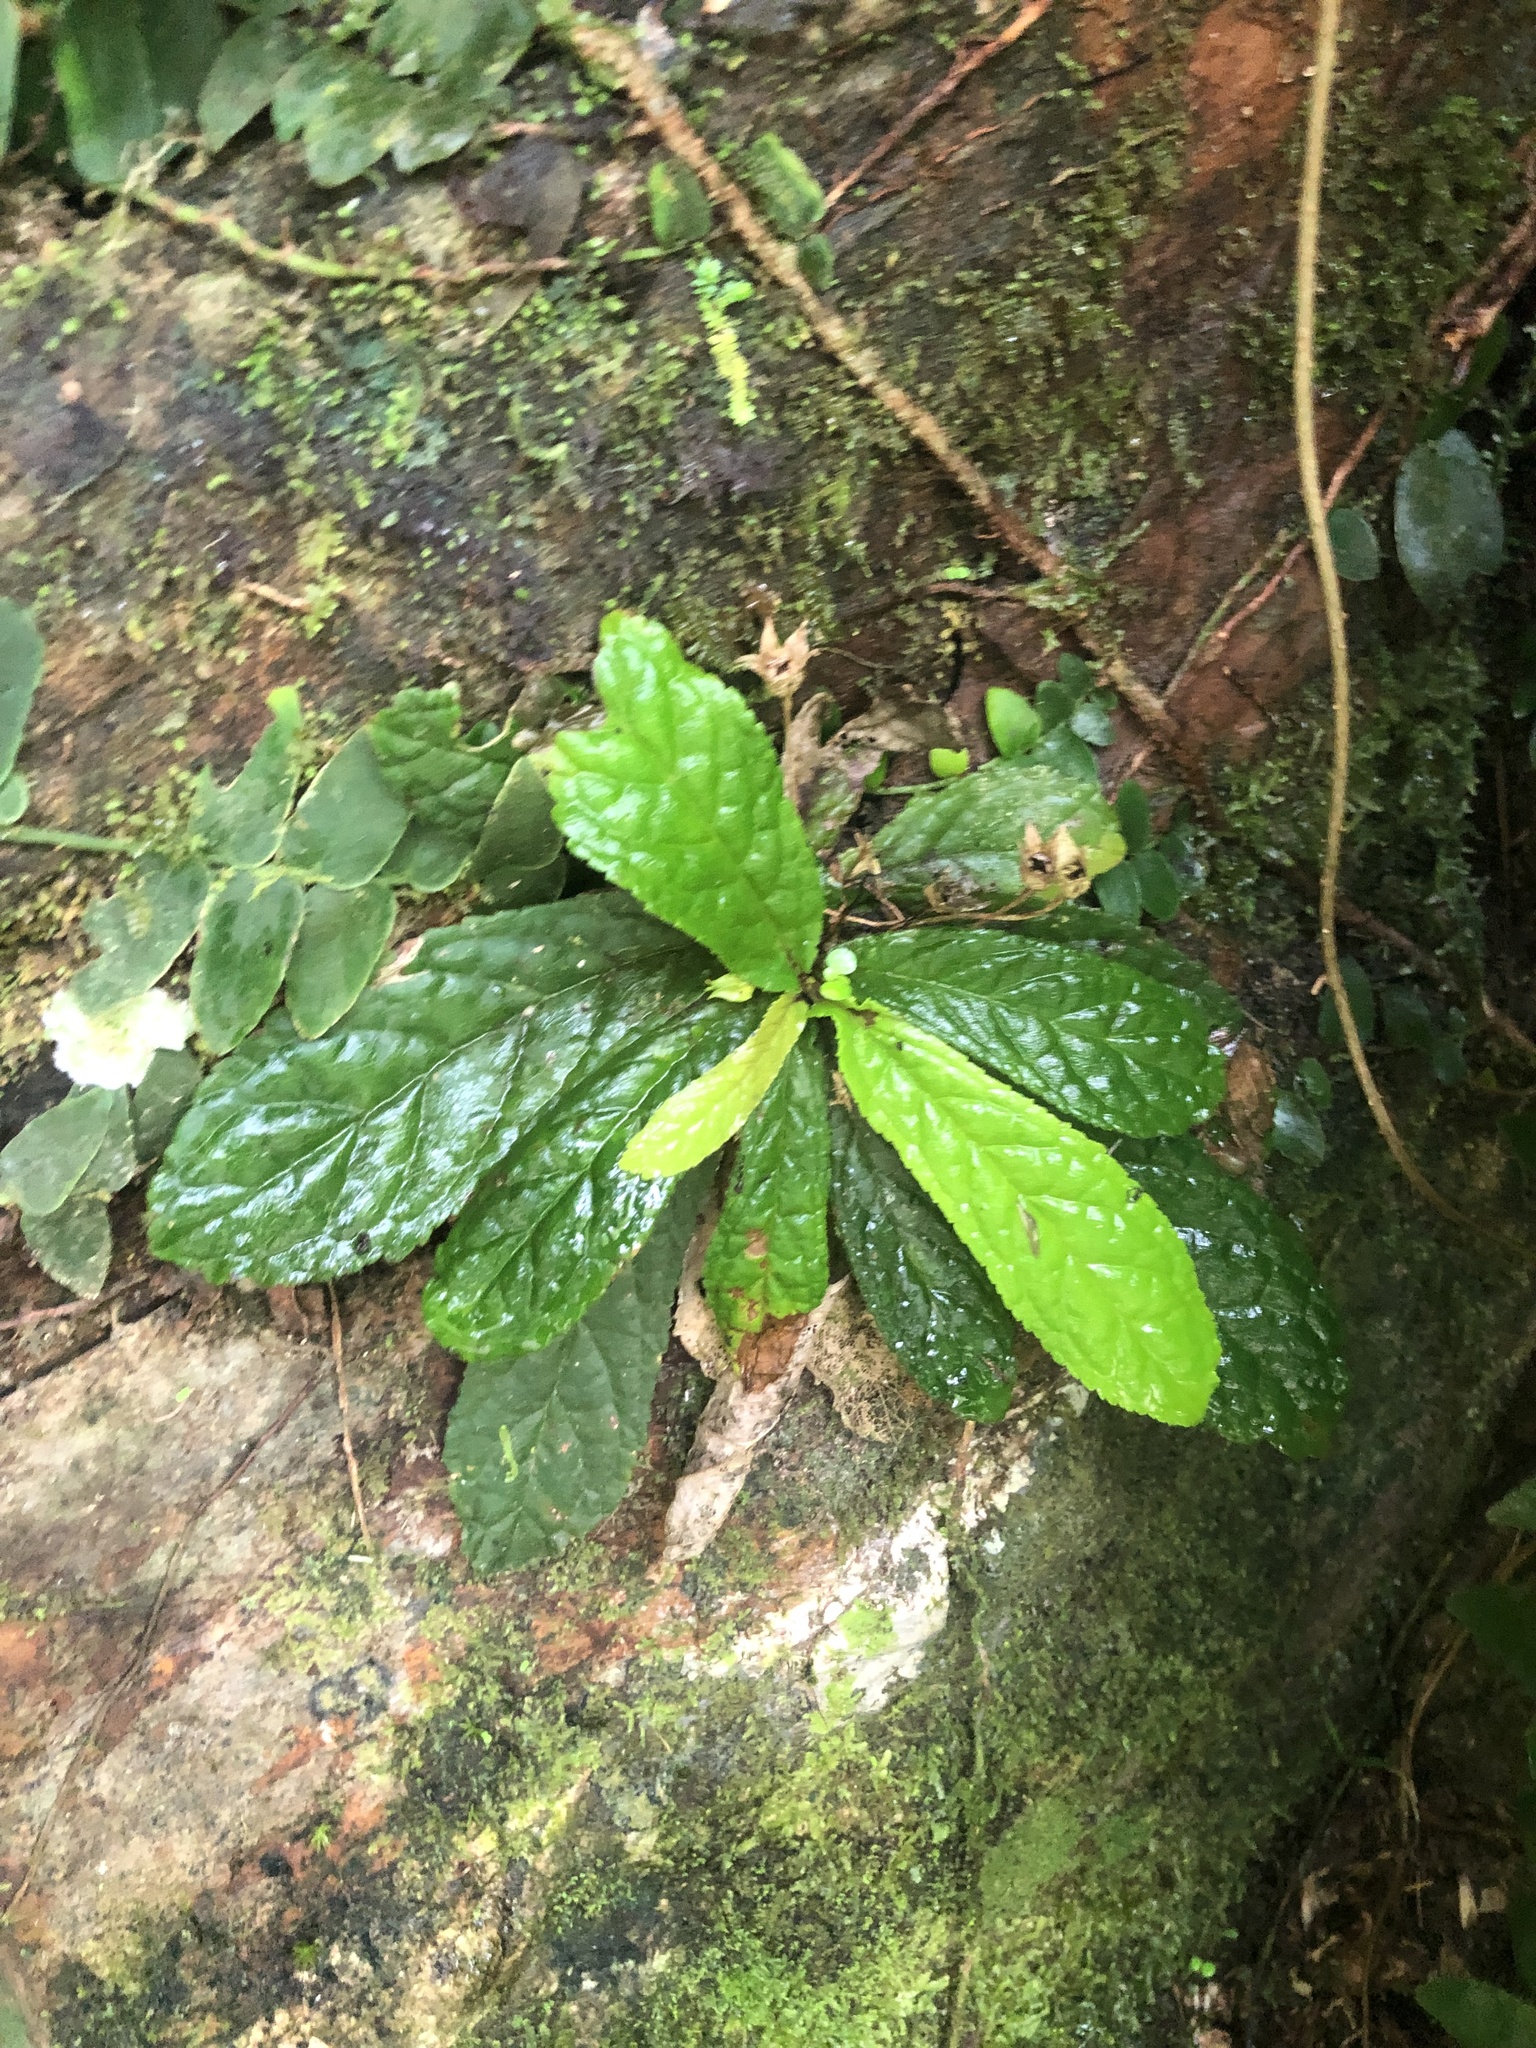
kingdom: Plantae
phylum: Tracheophyta
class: Magnoliopsida
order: Lamiales
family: Gesneriaceae
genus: Gesneria
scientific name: Gesneria reticulata
